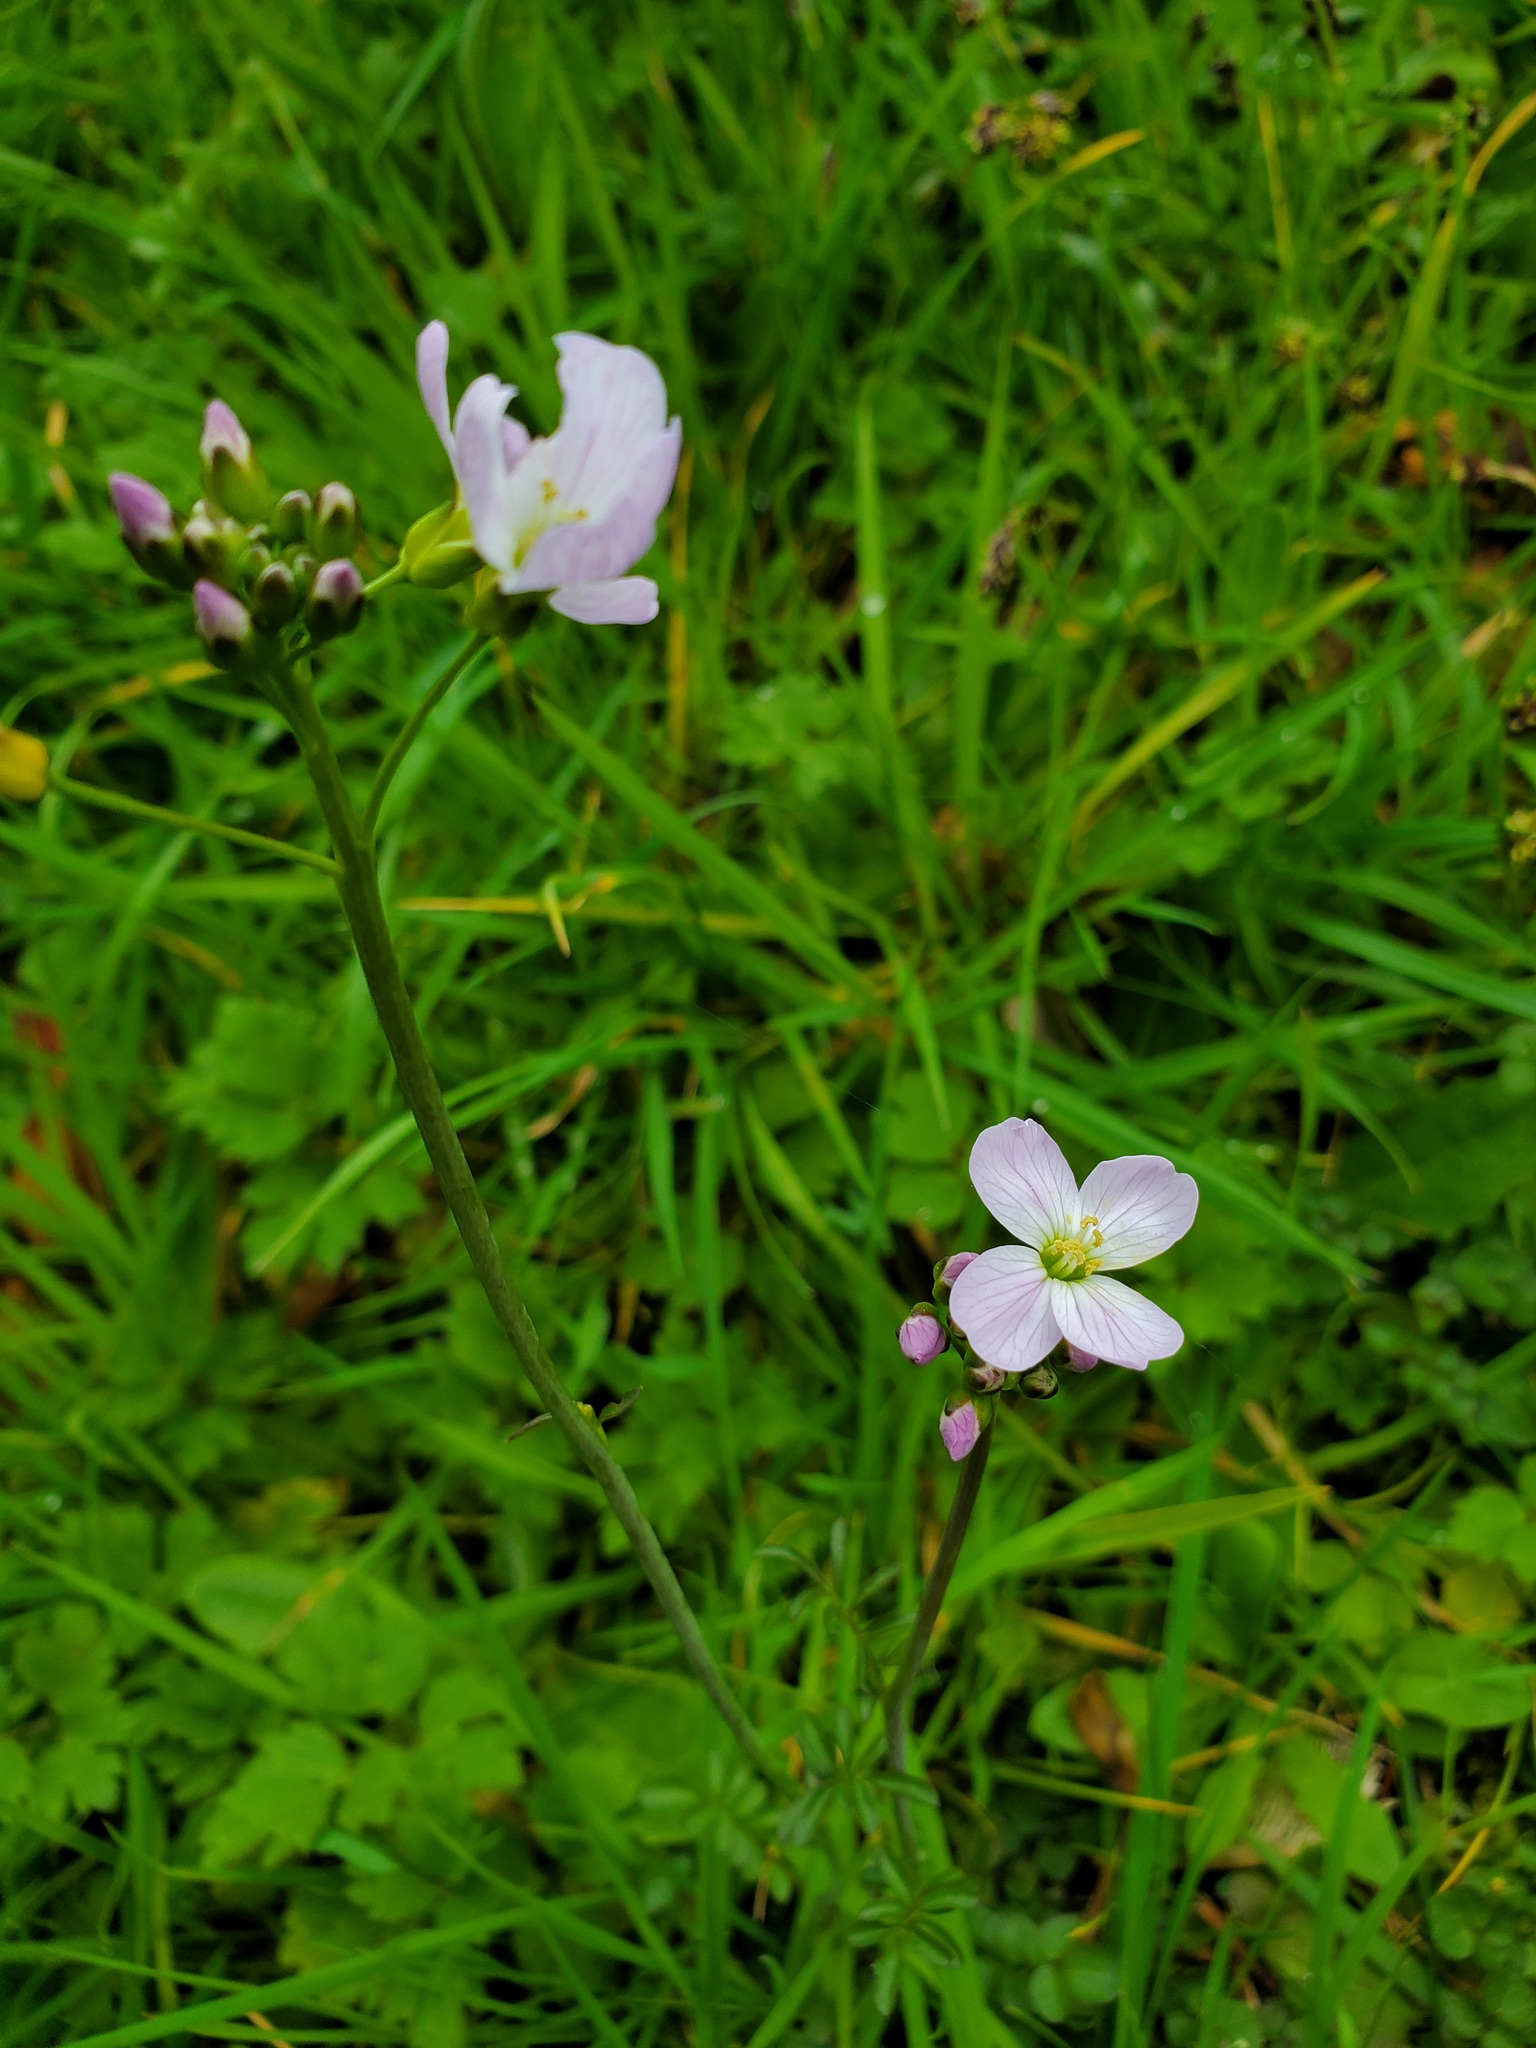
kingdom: Plantae
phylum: Tracheophyta
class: Magnoliopsida
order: Brassicales
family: Brassicaceae
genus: Cardamine
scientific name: Cardamine pratensis
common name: Cuckoo flower
